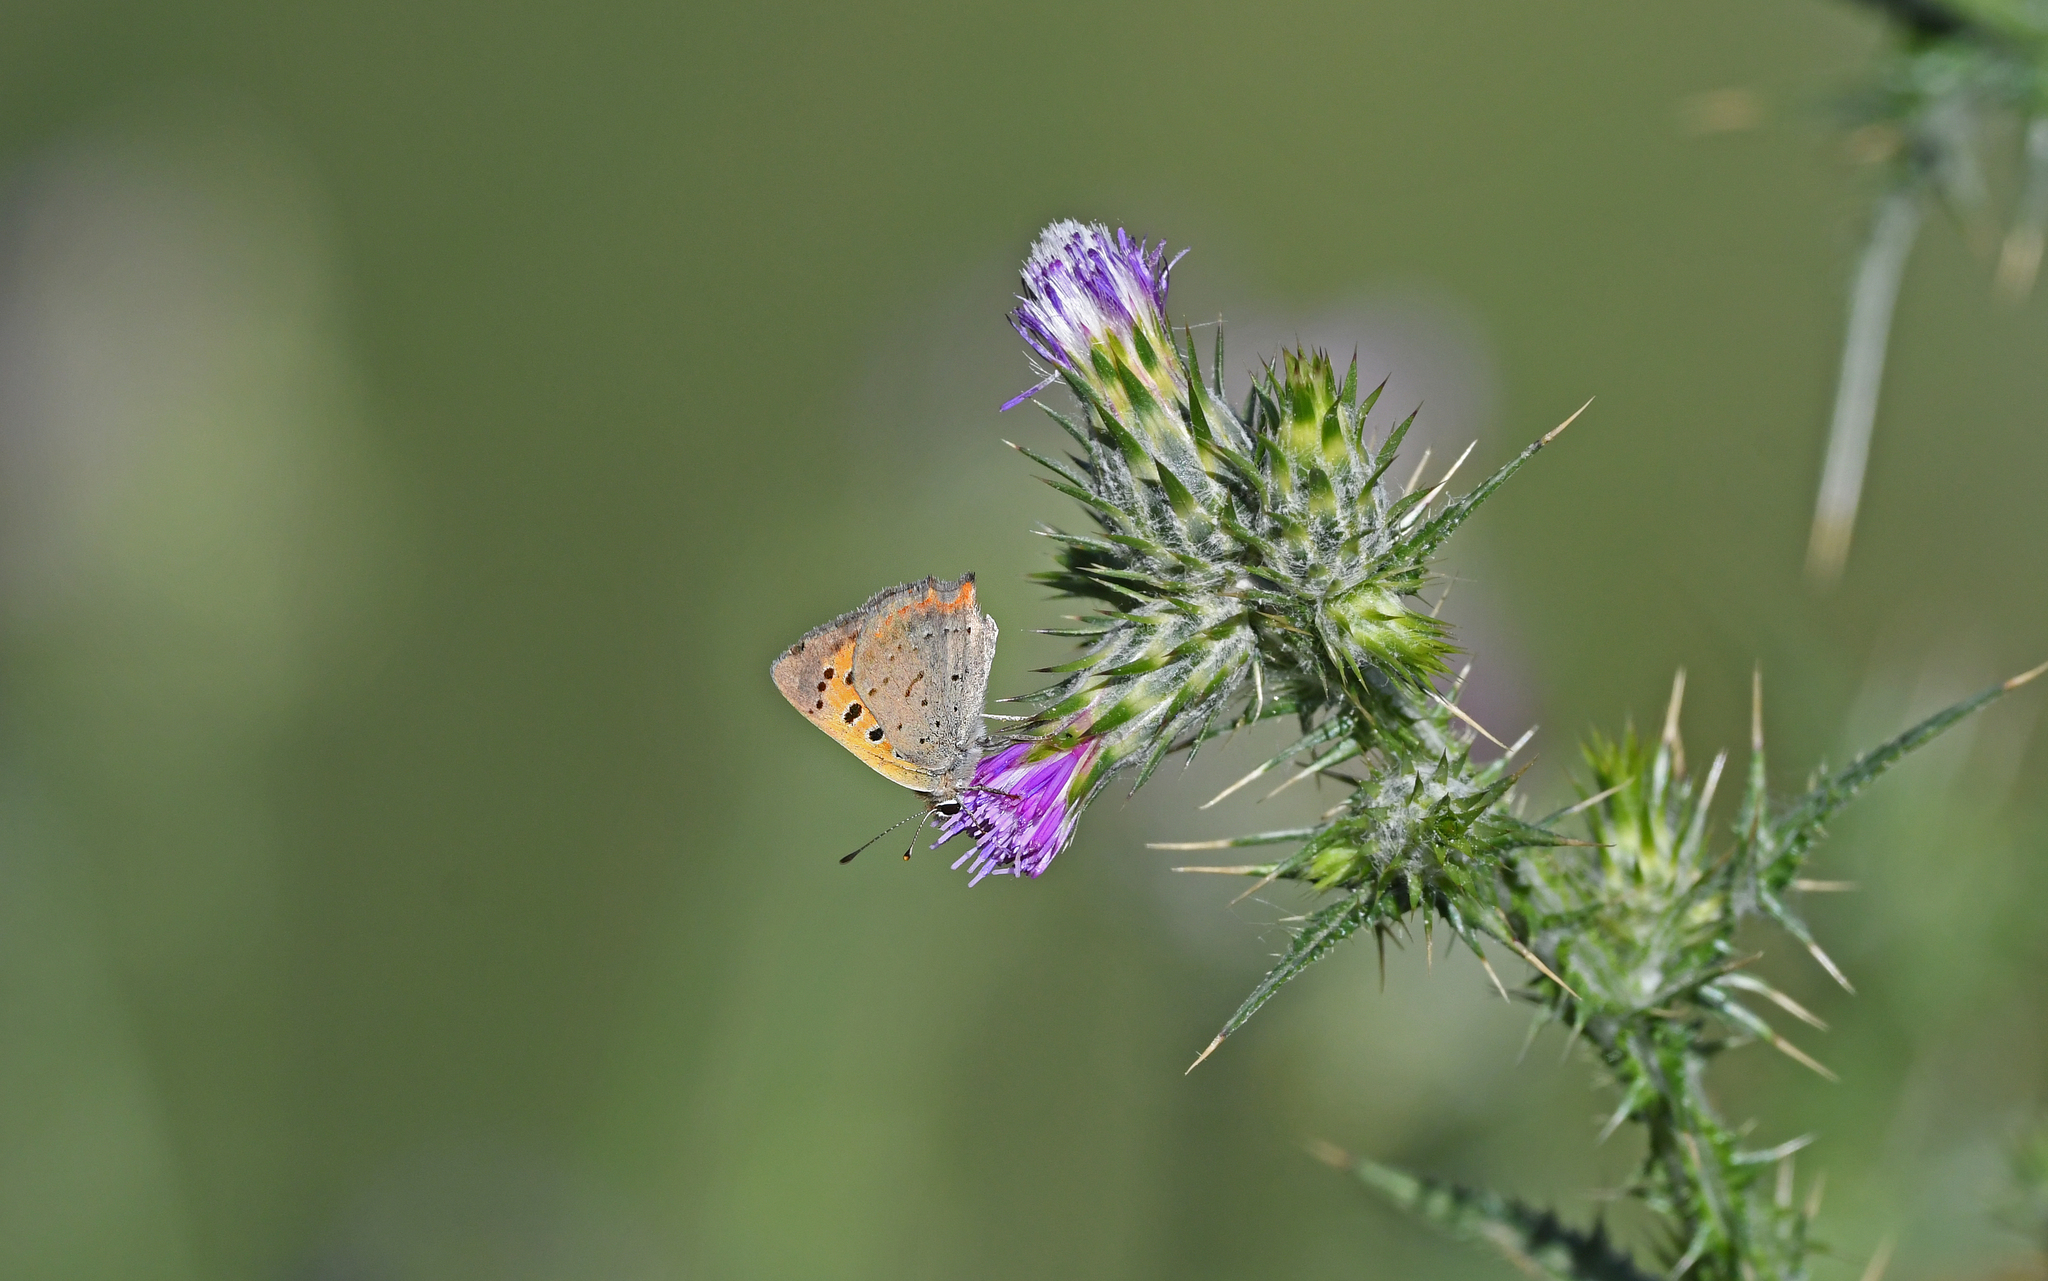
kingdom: Animalia
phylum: Arthropoda
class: Insecta
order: Lepidoptera
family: Lycaenidae
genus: Lycaena
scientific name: Lycaena phlaeas
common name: Small copper
